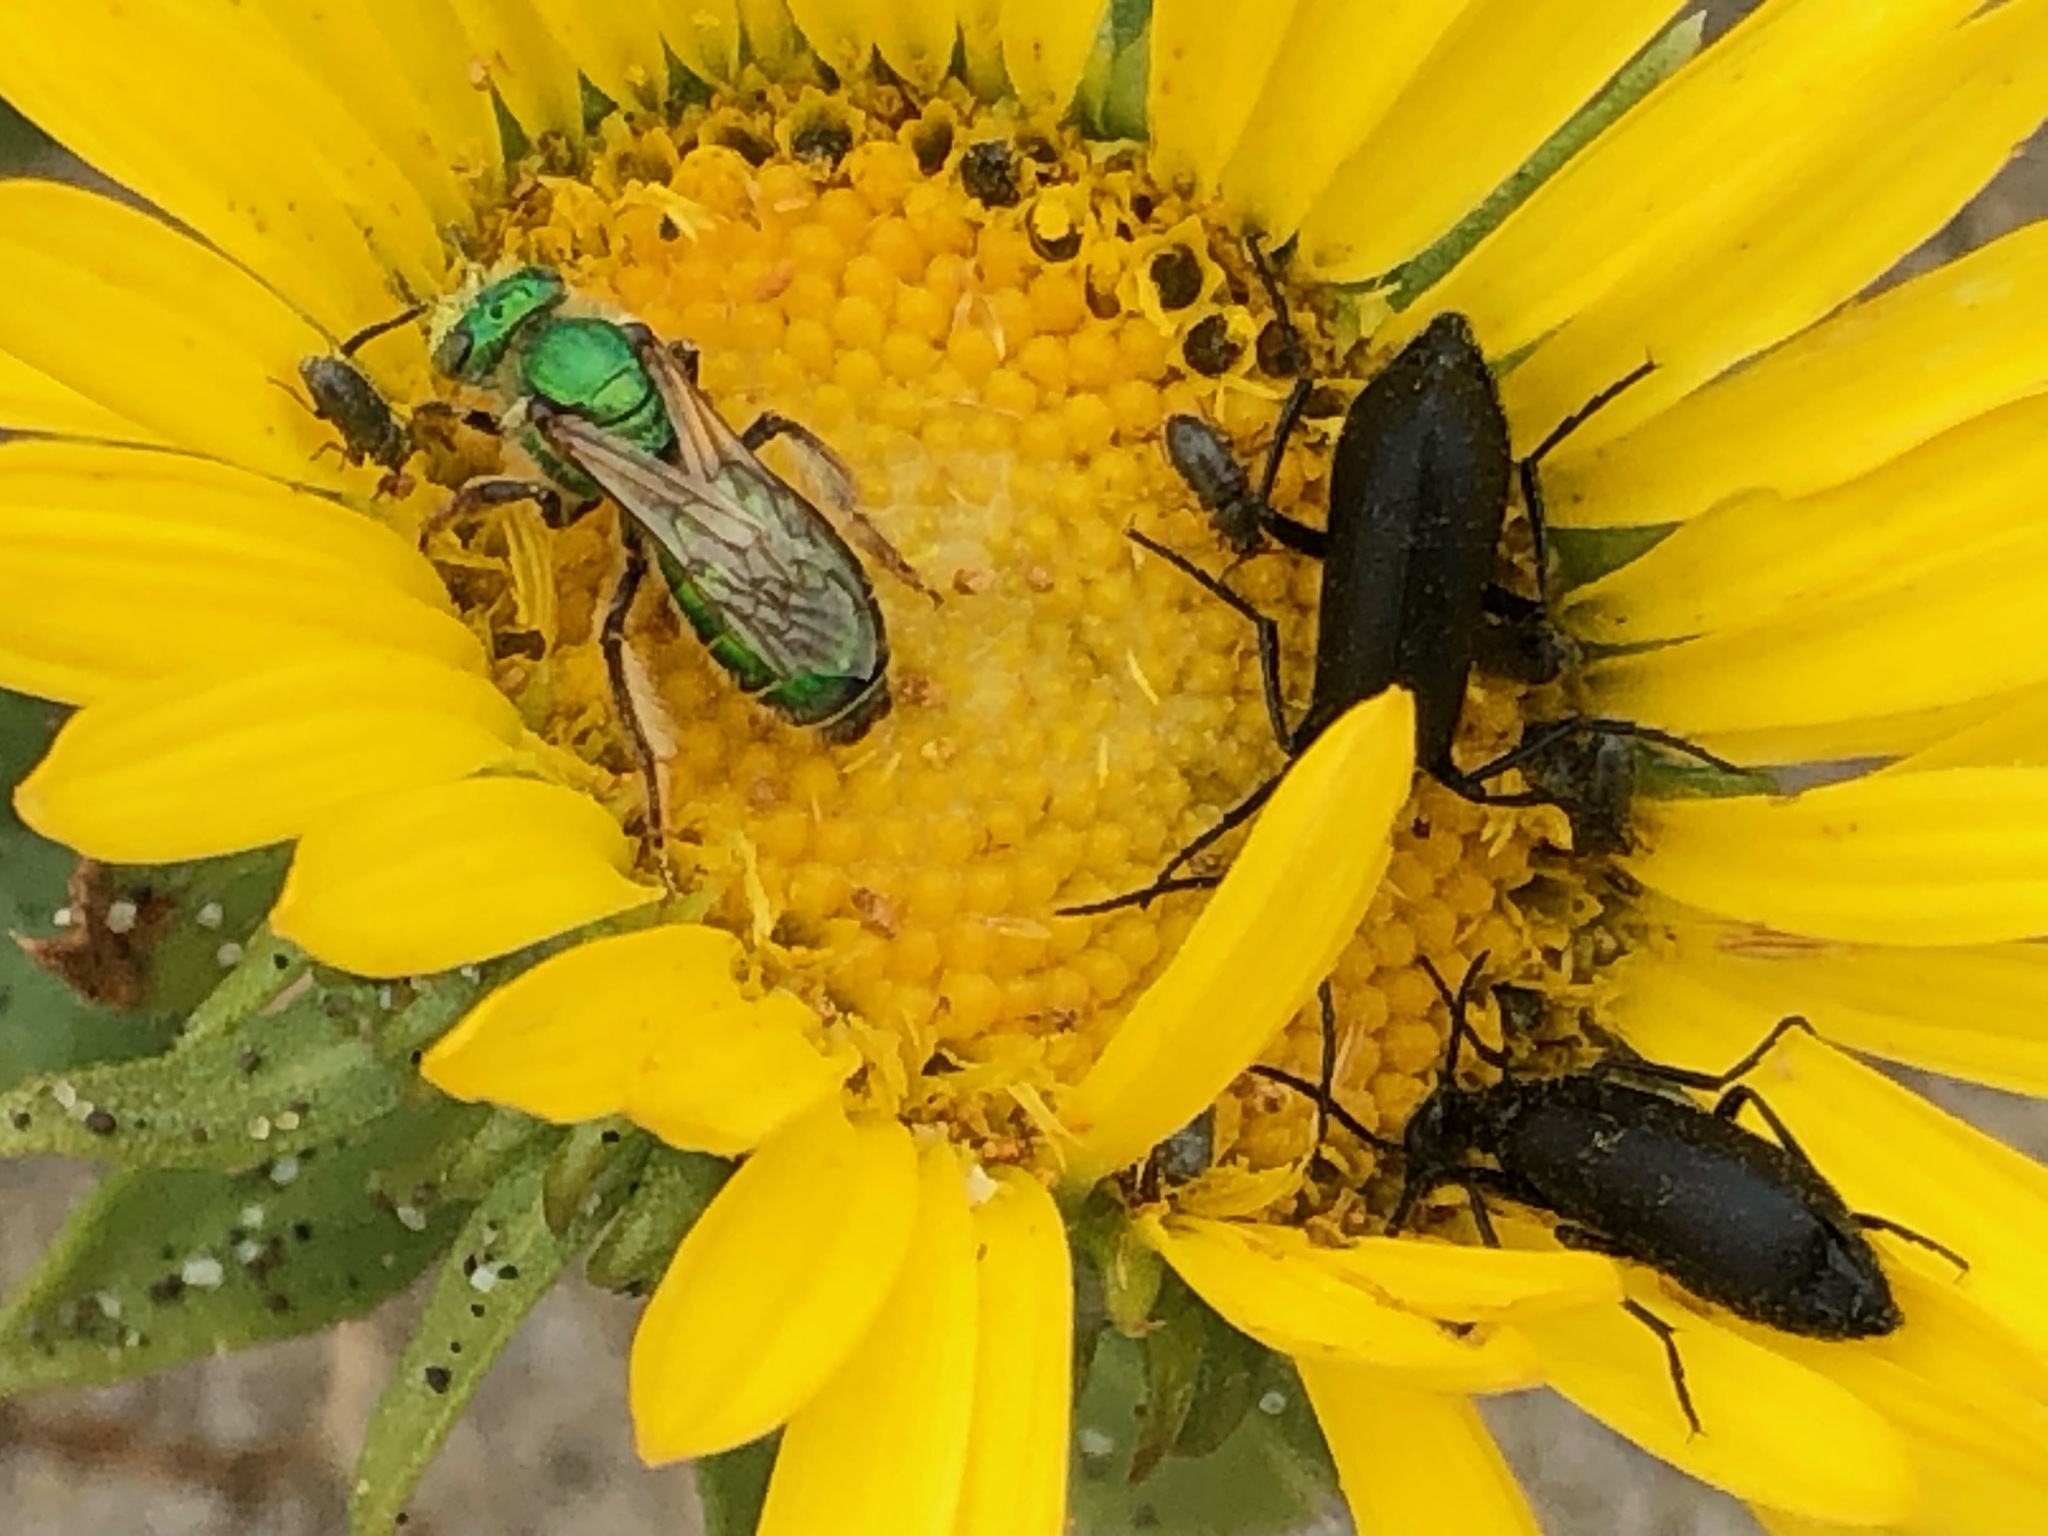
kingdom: Animalia
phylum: Arthropoda
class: Insecta
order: Hymenoptera
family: Halictidae
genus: Agapostemon
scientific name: Agapostemon
